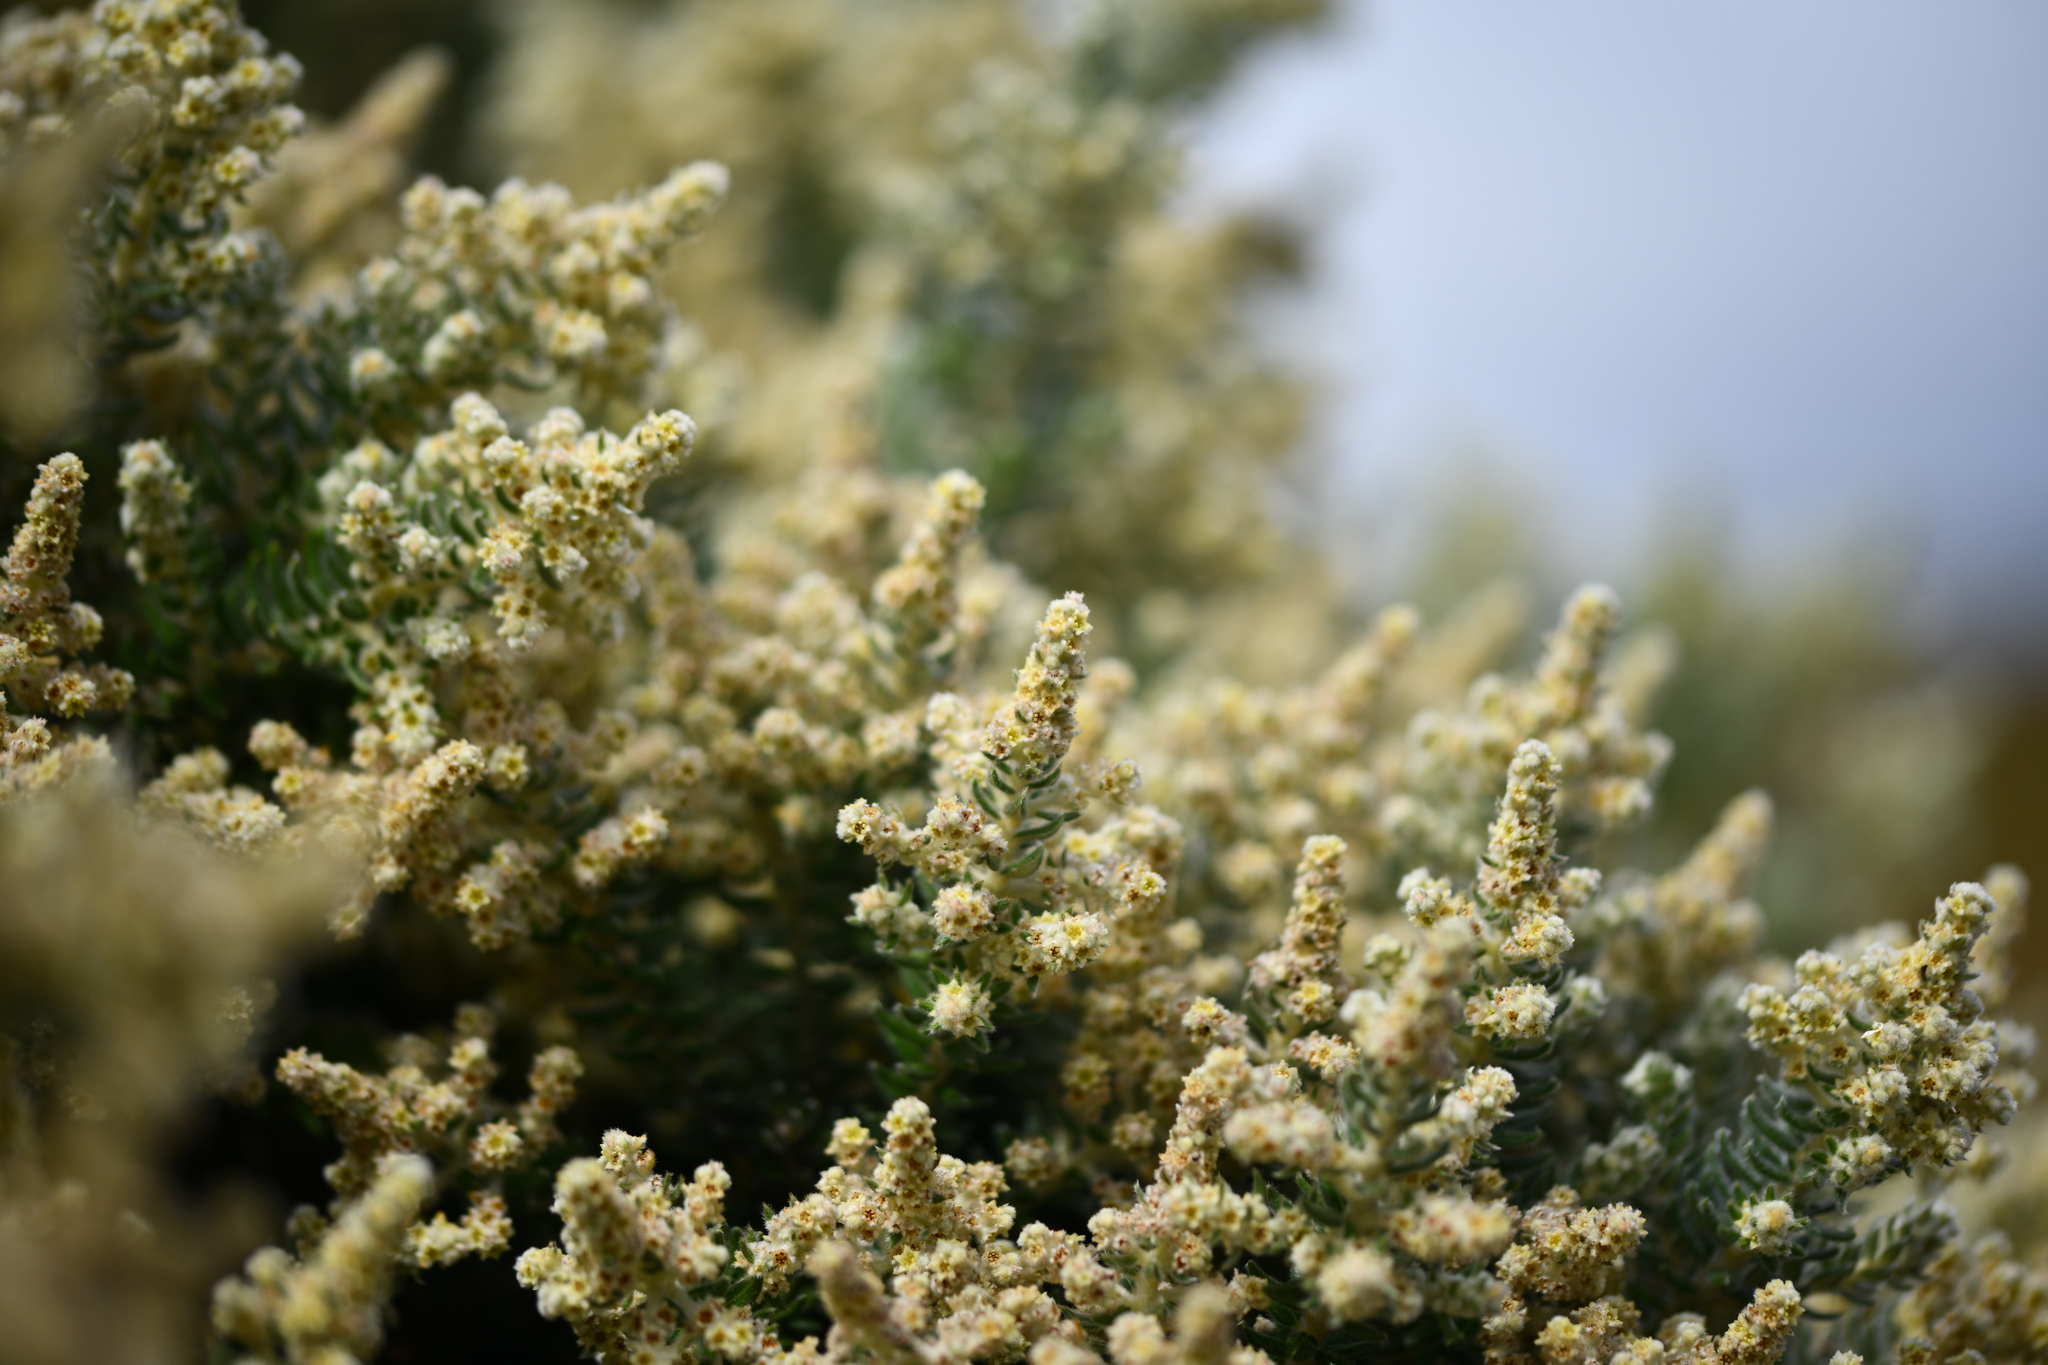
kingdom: Plantae
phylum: Tracheophyta
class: Magnoliopsida
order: Rosales
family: Rhamnaceae
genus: Phylica
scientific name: Phylica arborea
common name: Island cape myrtle
